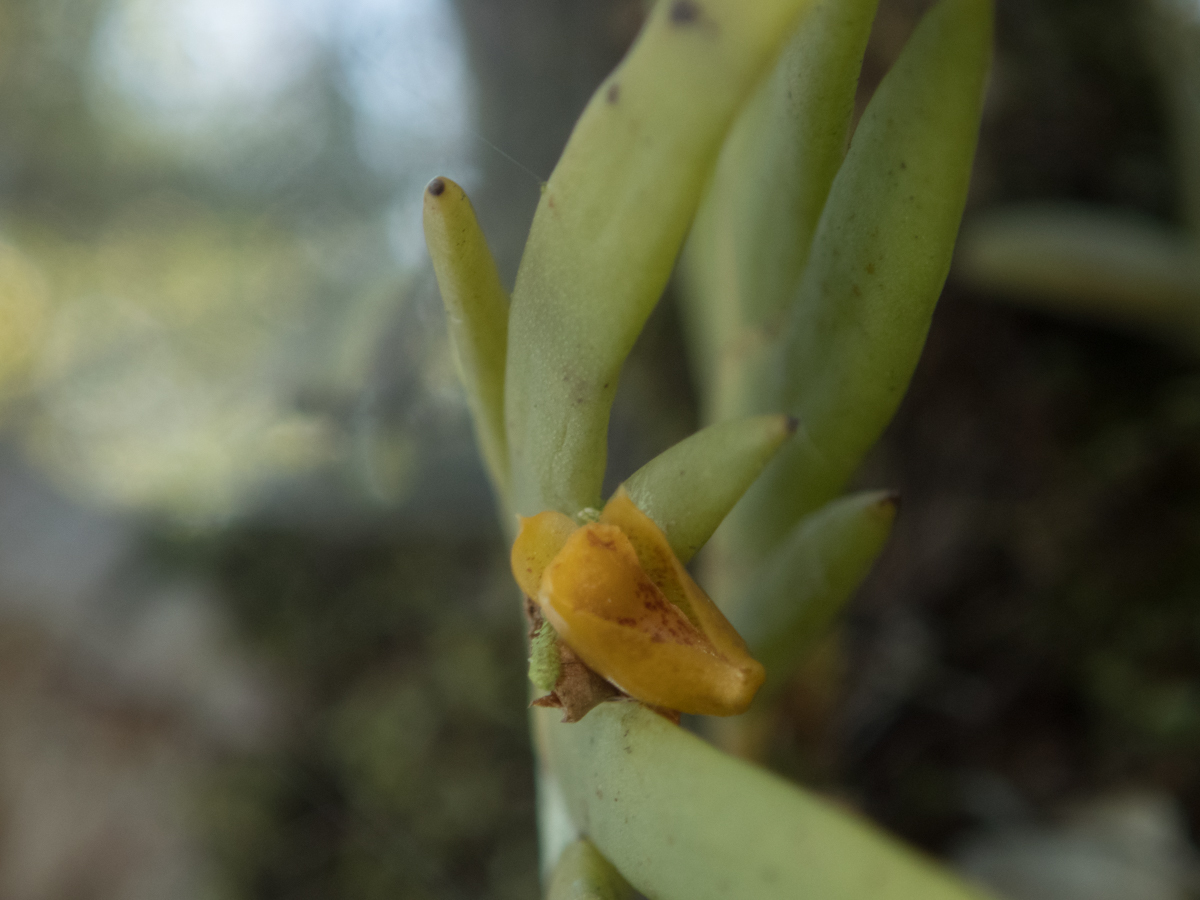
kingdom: Plantae
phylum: Tracheophyta
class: Liliopsida
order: Asparagales
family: Orchidaceae
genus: Oxystophyllum
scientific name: Oxystophyllum carnosum
